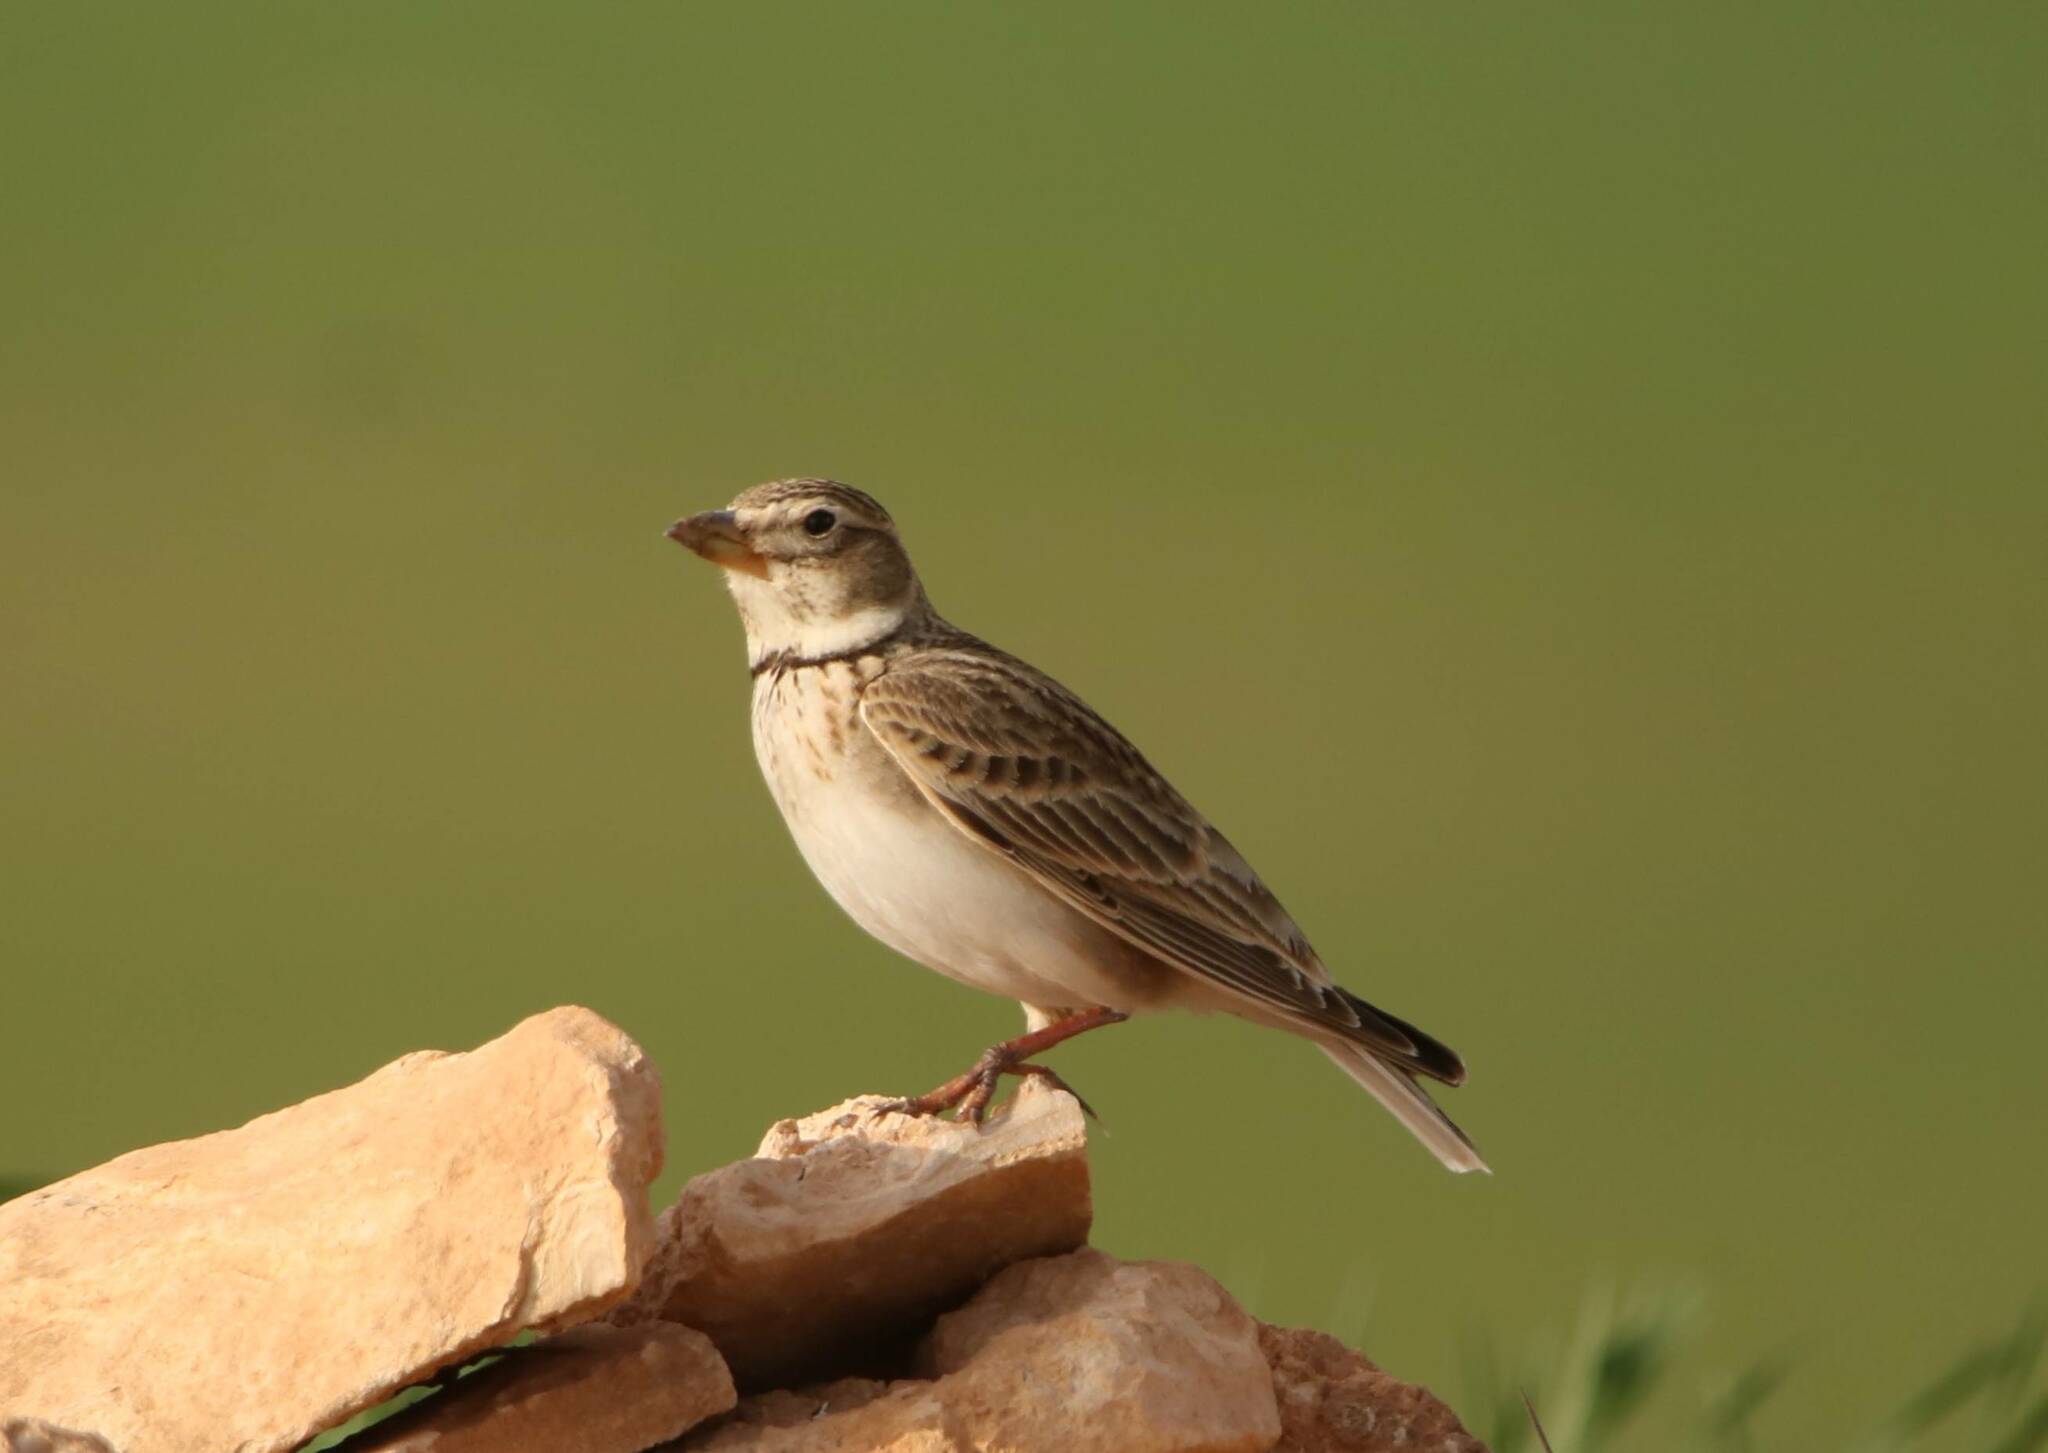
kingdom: Animalia
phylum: Chordata
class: Aves
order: Passeriformes
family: Alaudidae
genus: Melanocorypha
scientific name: Melanocorypha calandra
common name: Calandra lark
